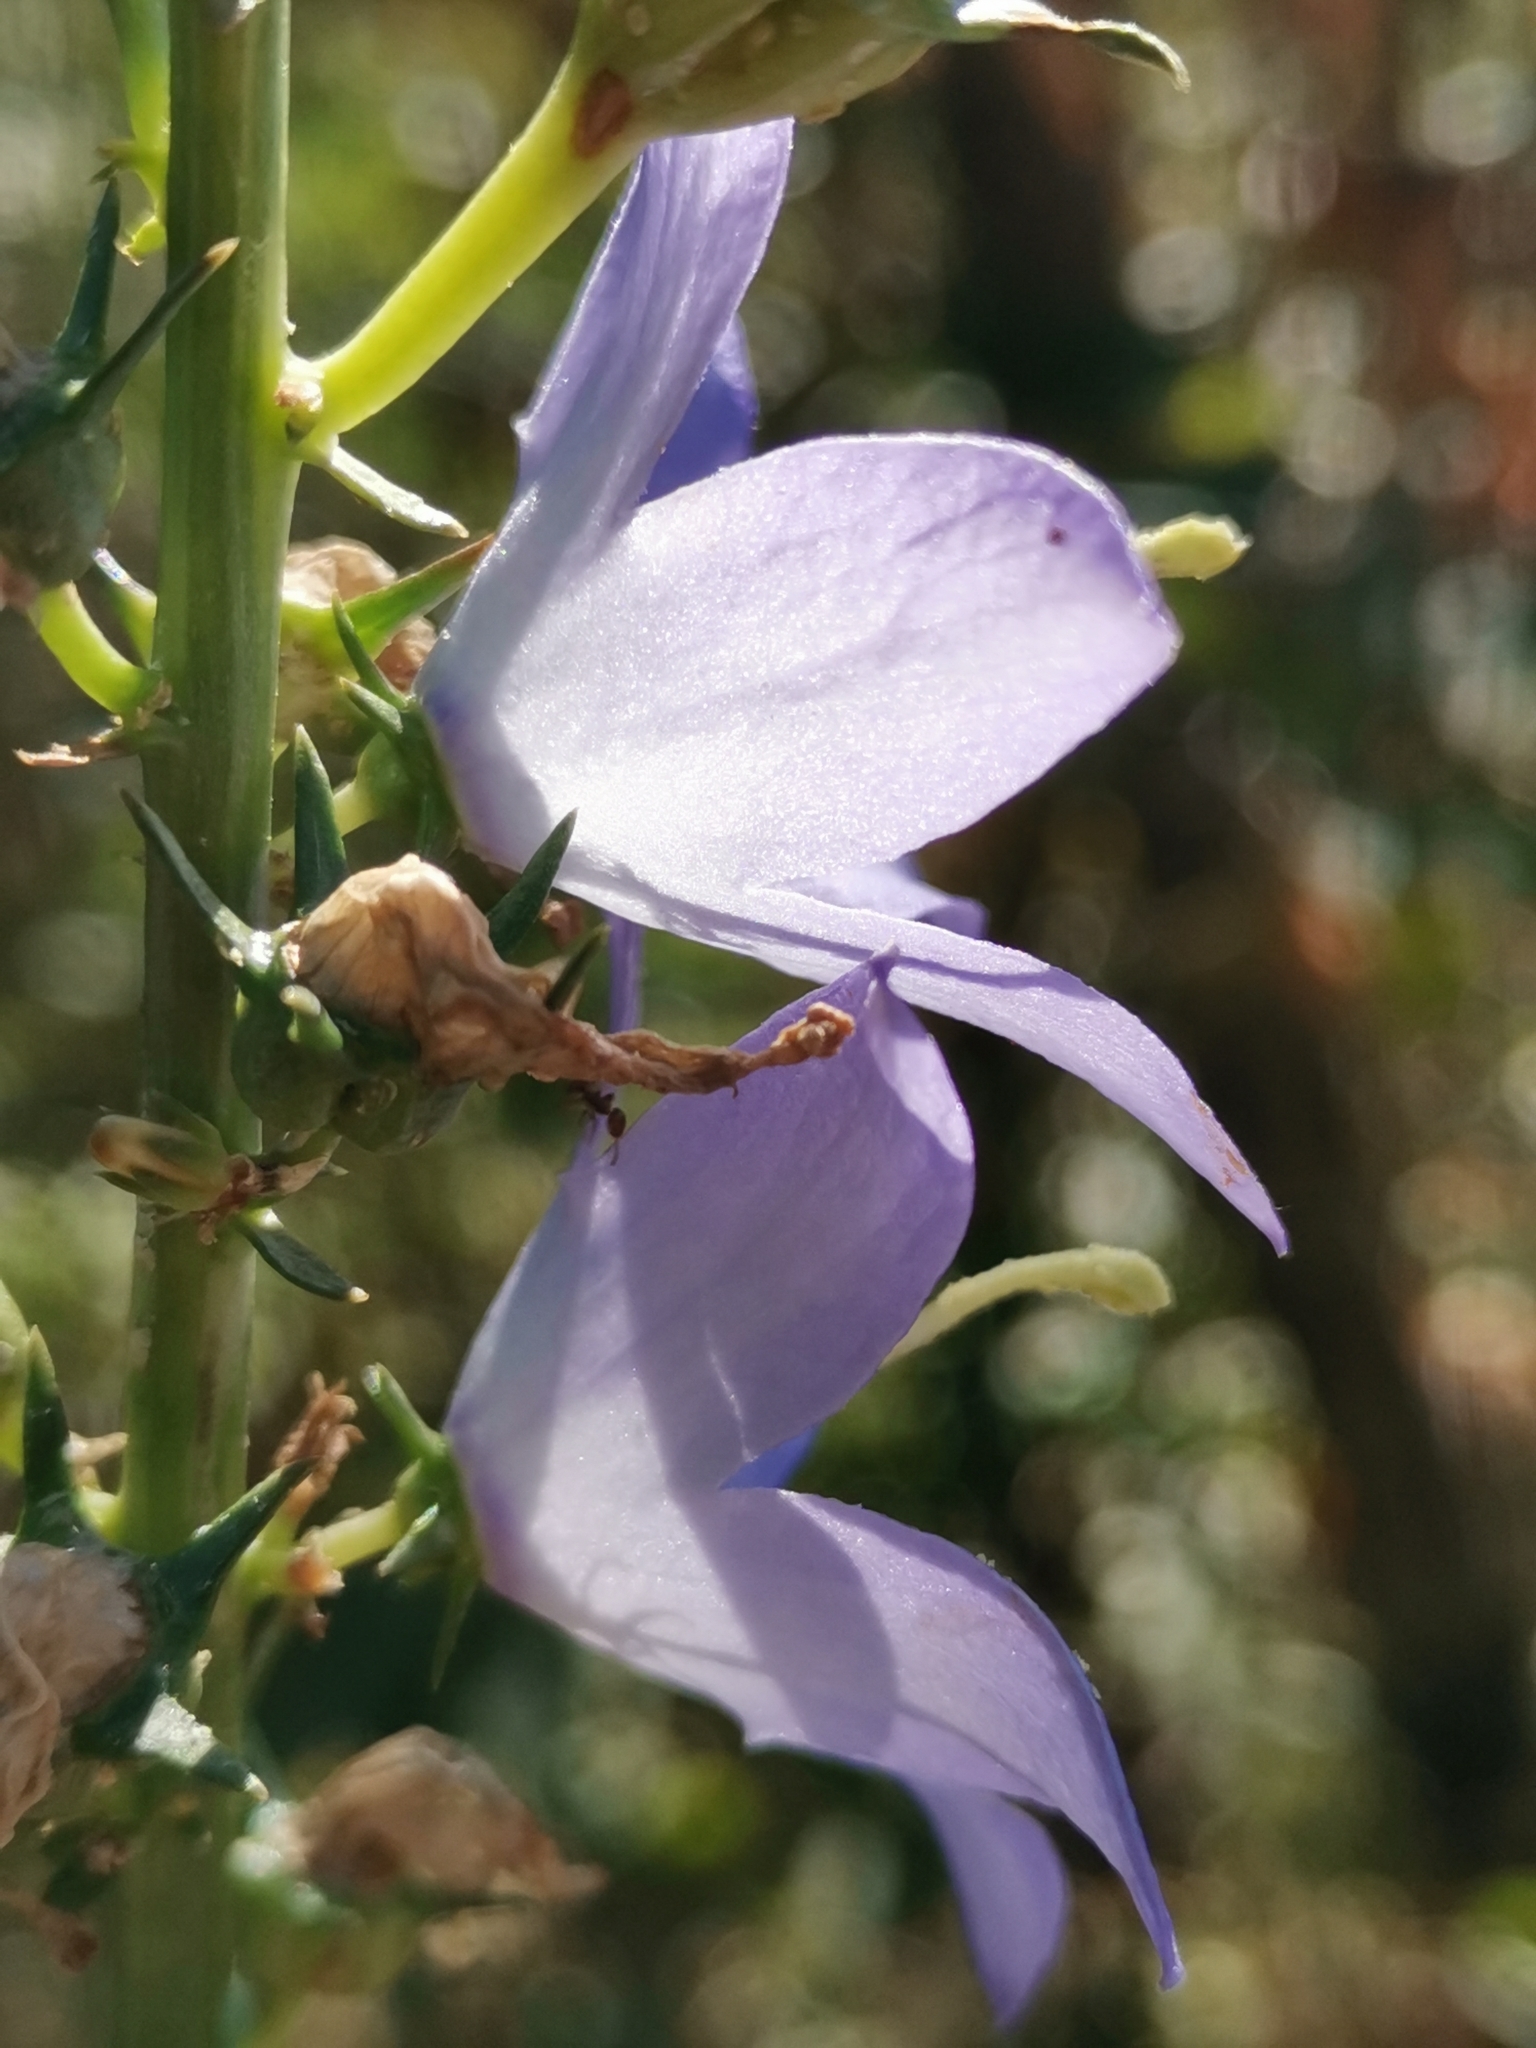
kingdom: Plantae
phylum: Tracheophyta
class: Magnoliopsida
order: Asterales
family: Campanulaceae
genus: Campanula
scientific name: Campanula pyramidalis
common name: Chimney bellflower
